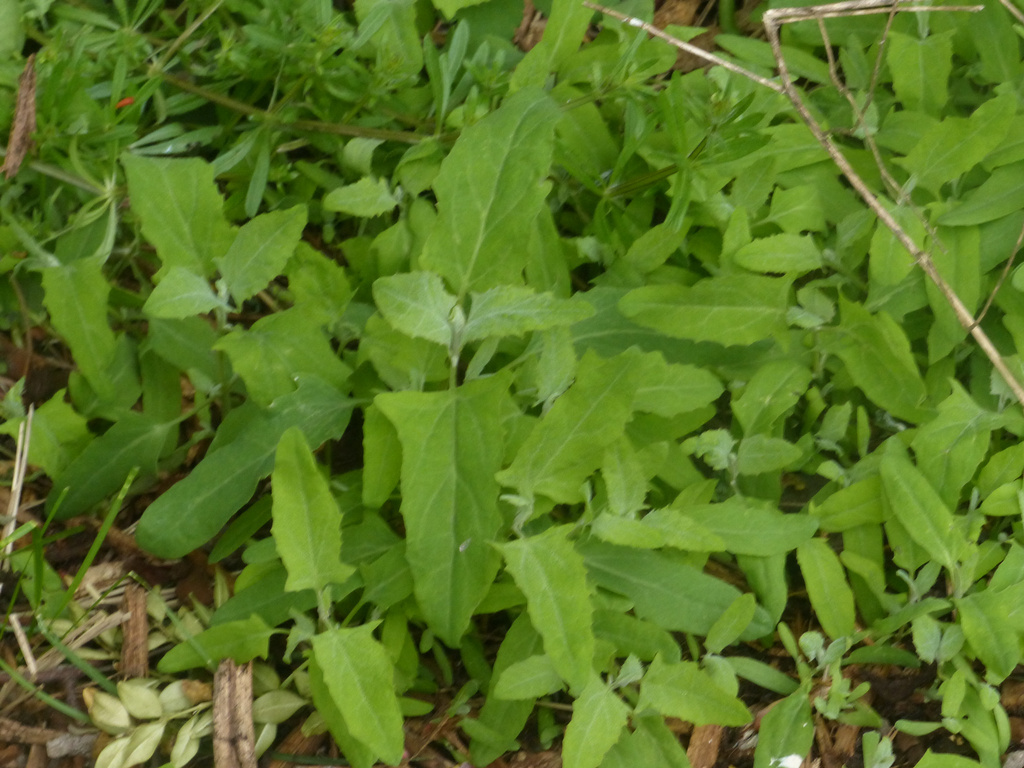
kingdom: Plantae
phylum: Tracheophyta
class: Magnoliopsida
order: Caryophyllales
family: Amaranthaceae
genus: Chenopodium
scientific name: Chenopodium album
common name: Fat-hen
